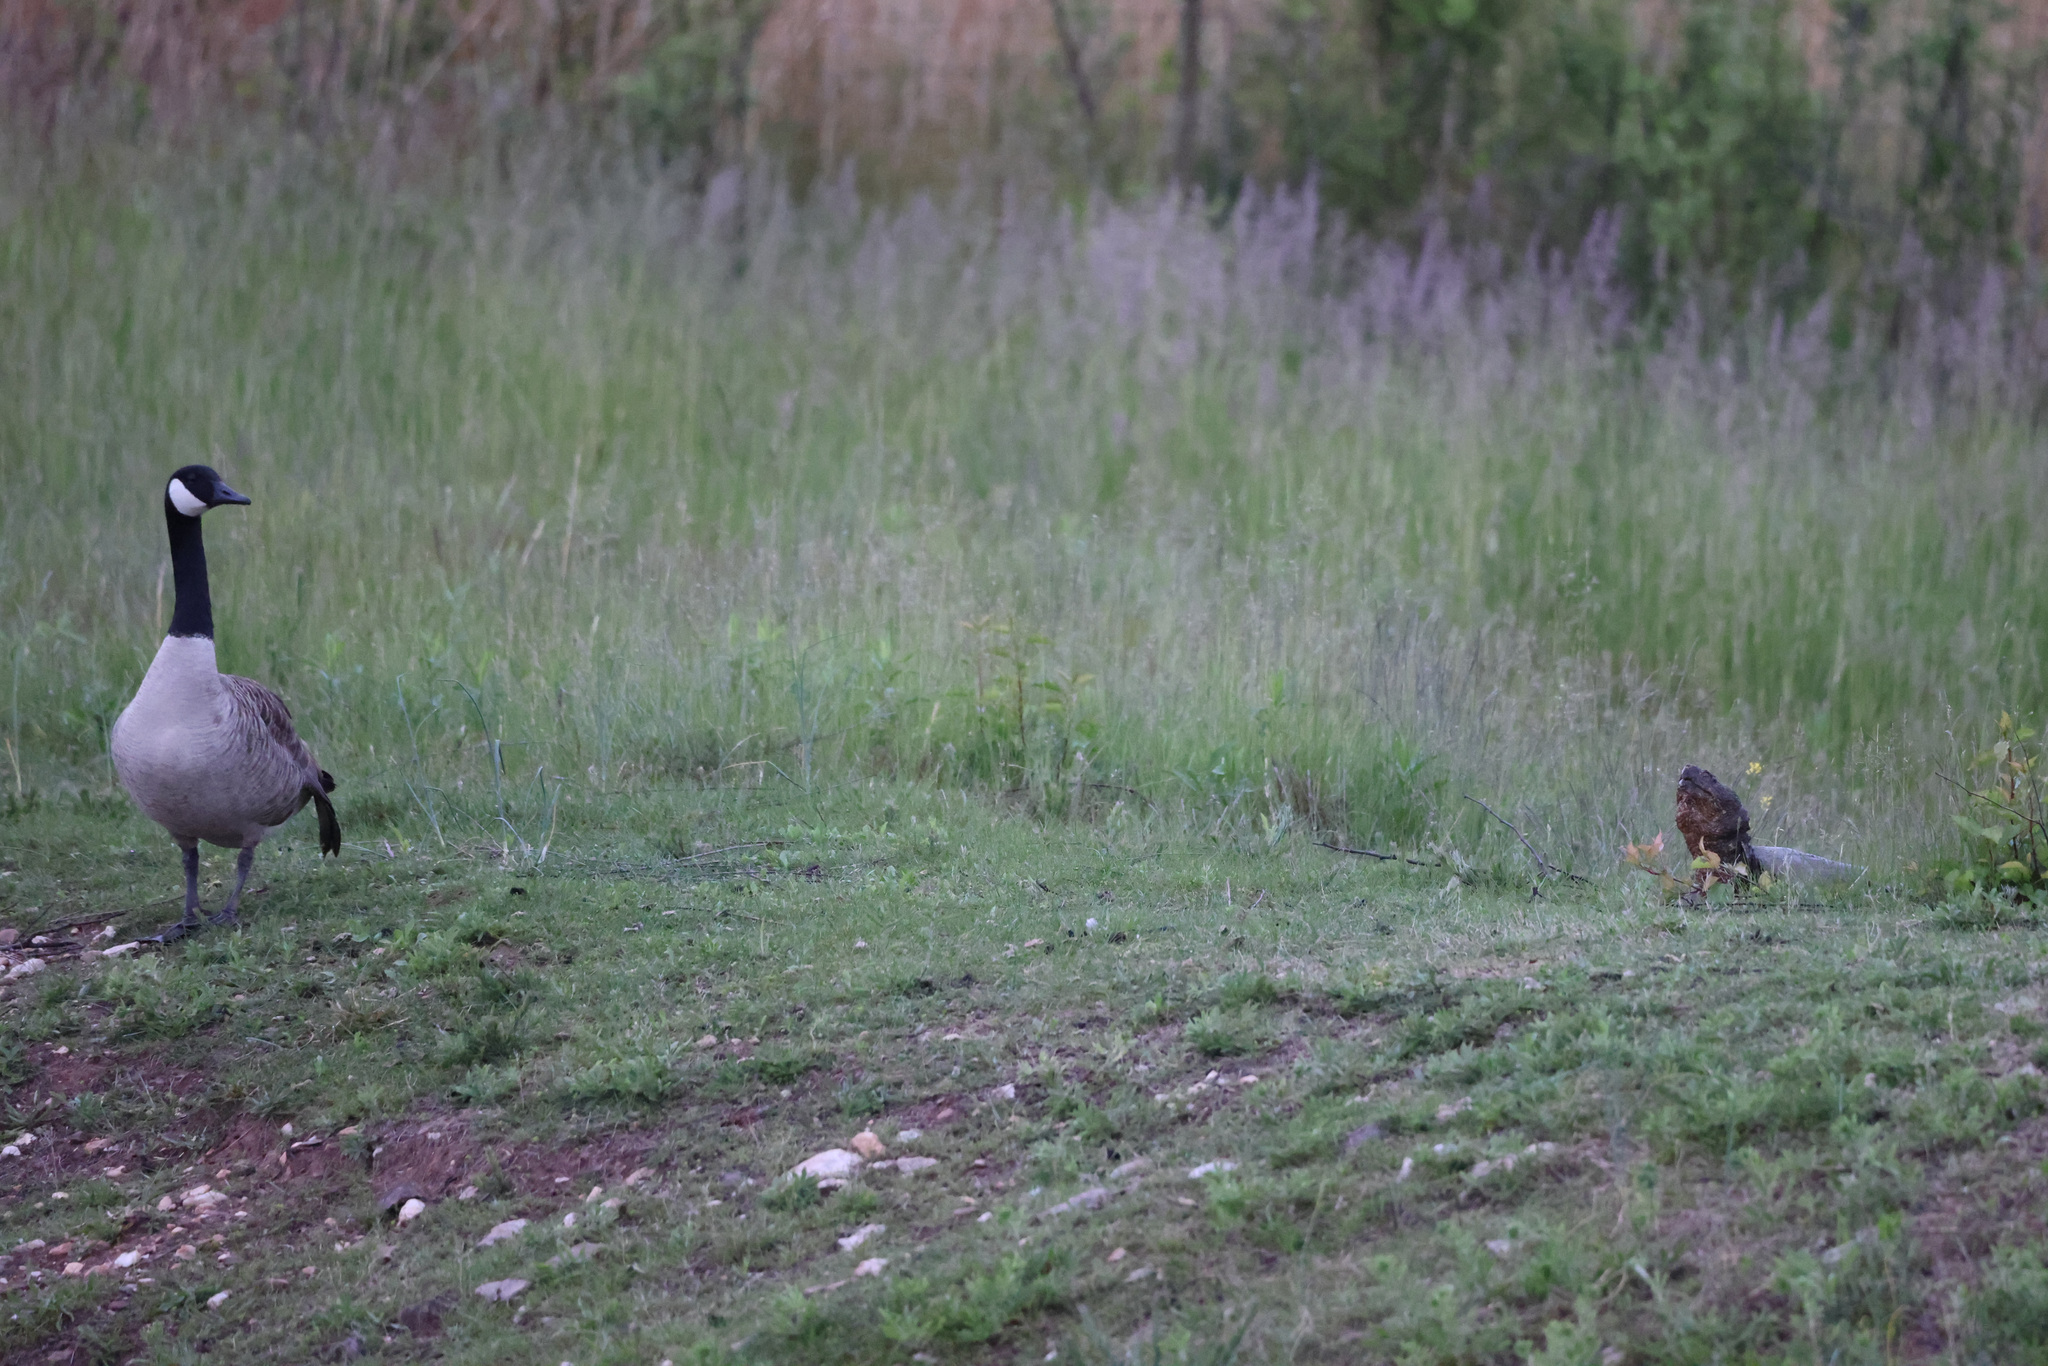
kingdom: Animalia
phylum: Chordata
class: Testudines
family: Chelydridae
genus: Chelydra
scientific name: Chelydra serpentina
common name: Common snapping turtle
